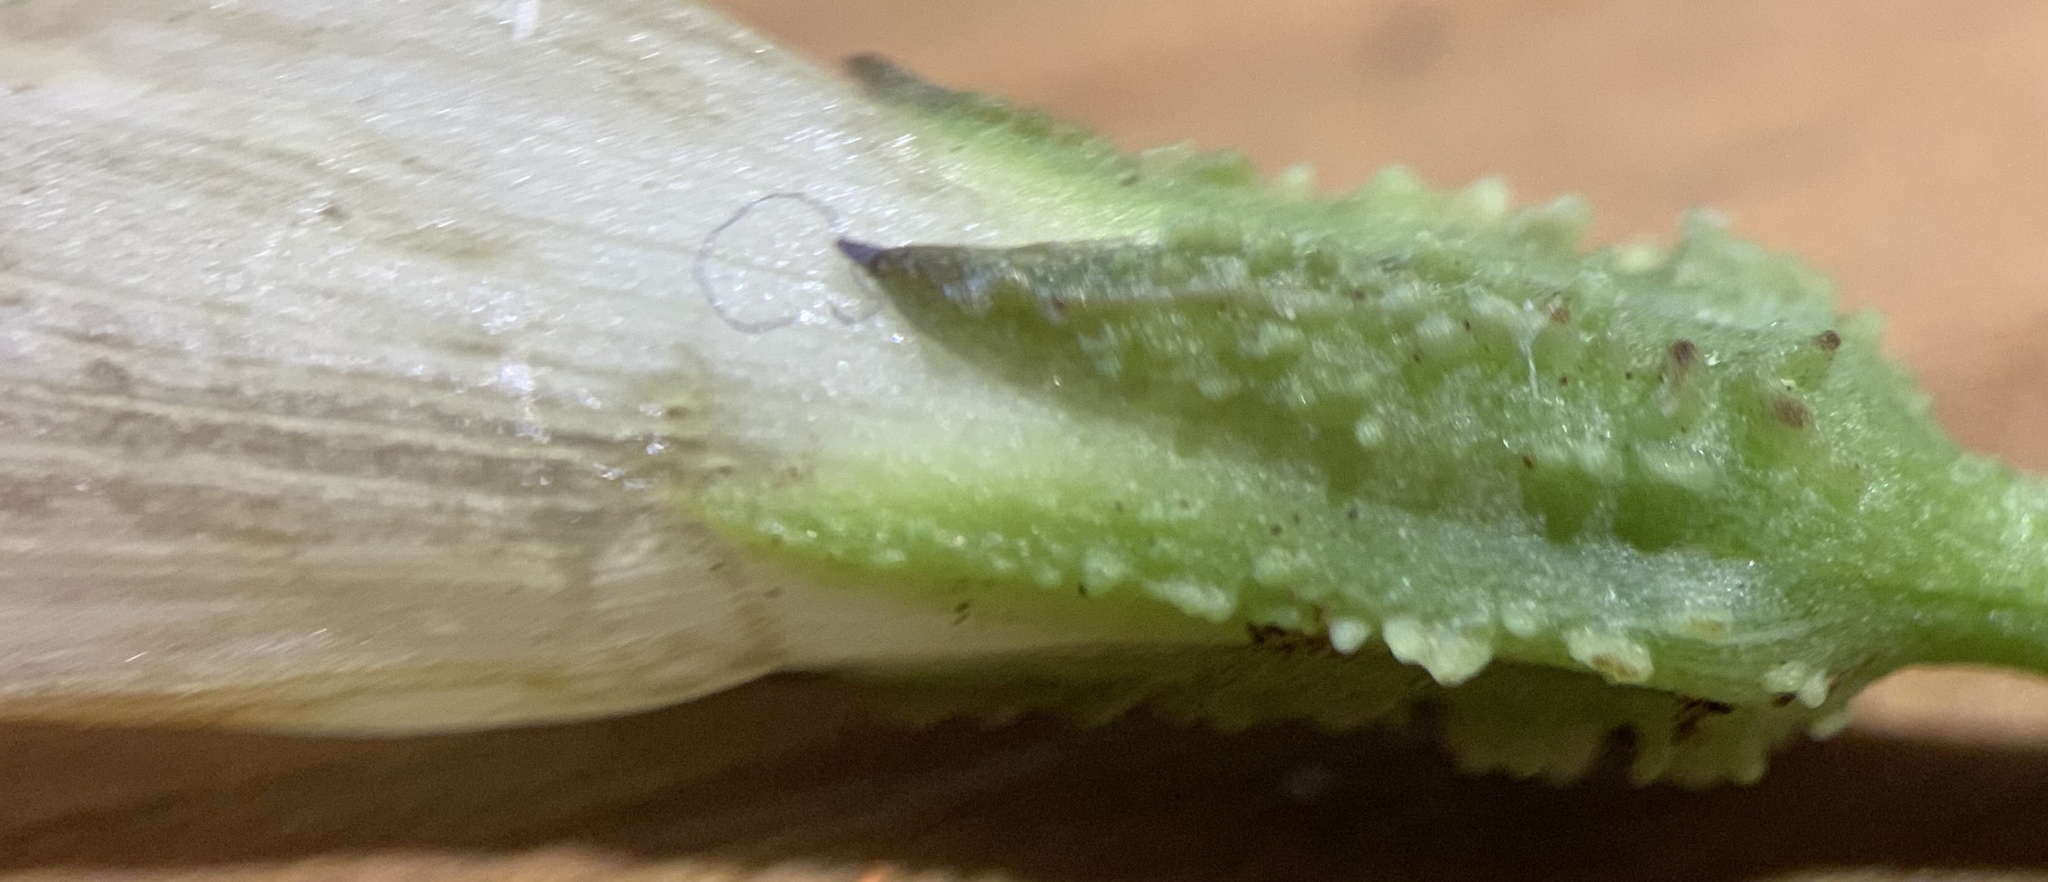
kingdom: Plantae
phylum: Tracheophyta
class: Magnoliopsida
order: Solanales
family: Convolvulaceae
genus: Ipomoea
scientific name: Ipomoea plummerae
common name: Plummer's morning-glory
